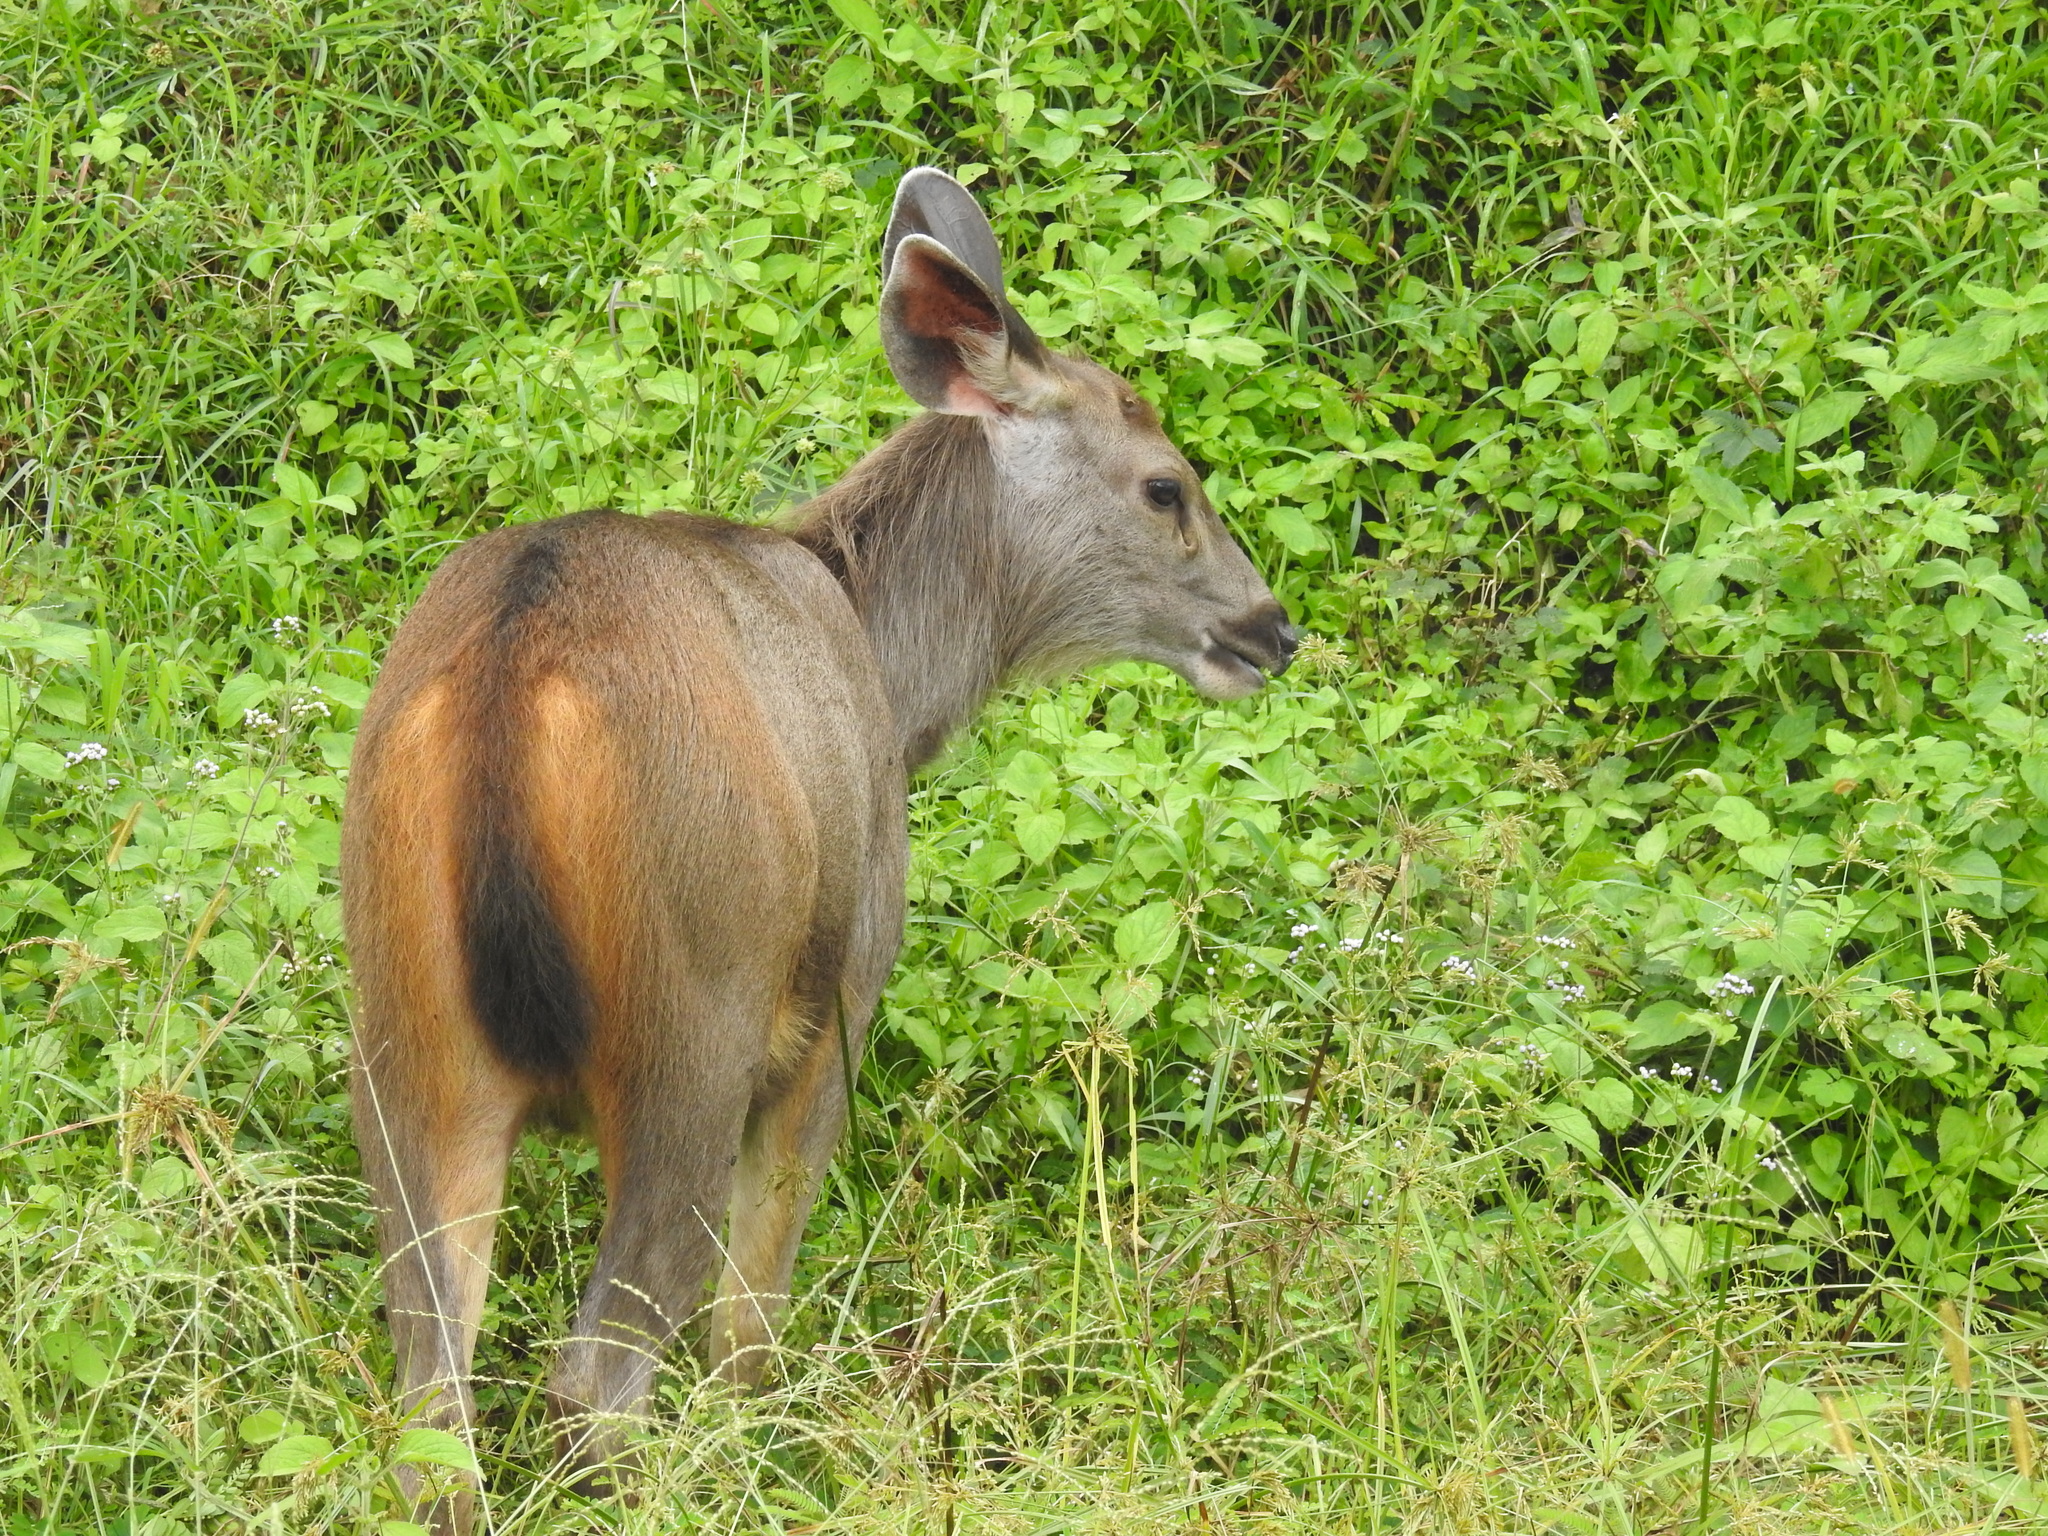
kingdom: Animalia
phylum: Chordata
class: Mammalia
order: Artiodactyla
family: Cervidae
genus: Rusa
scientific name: Rusa unicolor
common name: Sambar
